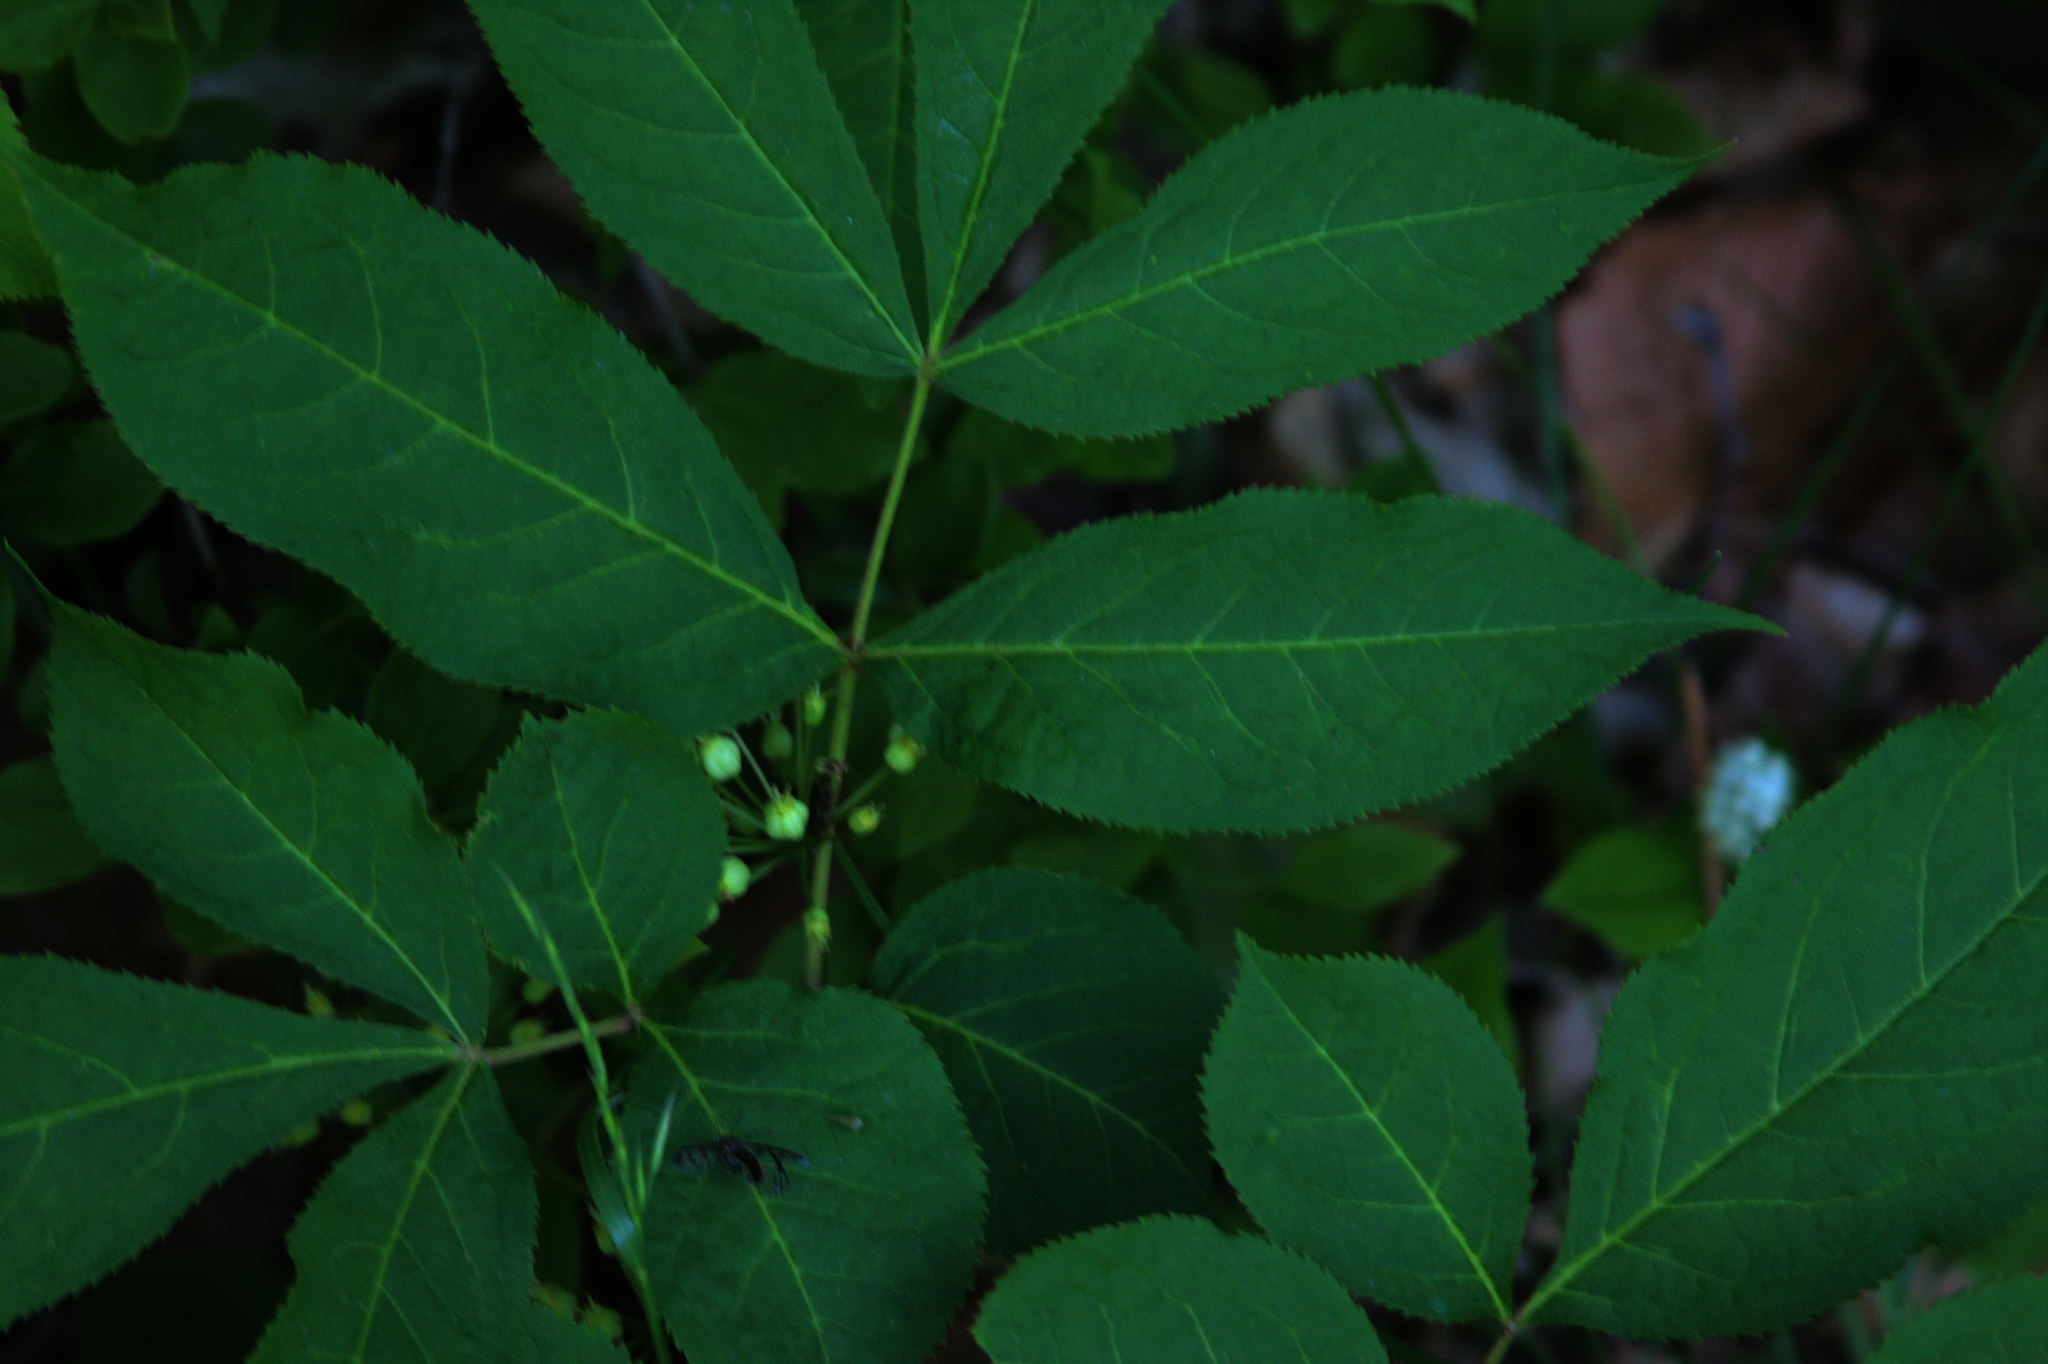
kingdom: Plantae
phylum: Tracheophyta
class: Magnoliopsida
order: Apiales
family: Araliaceae
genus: Aralia
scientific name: Aralia nudicaulis
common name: Wild sarsaparilla
